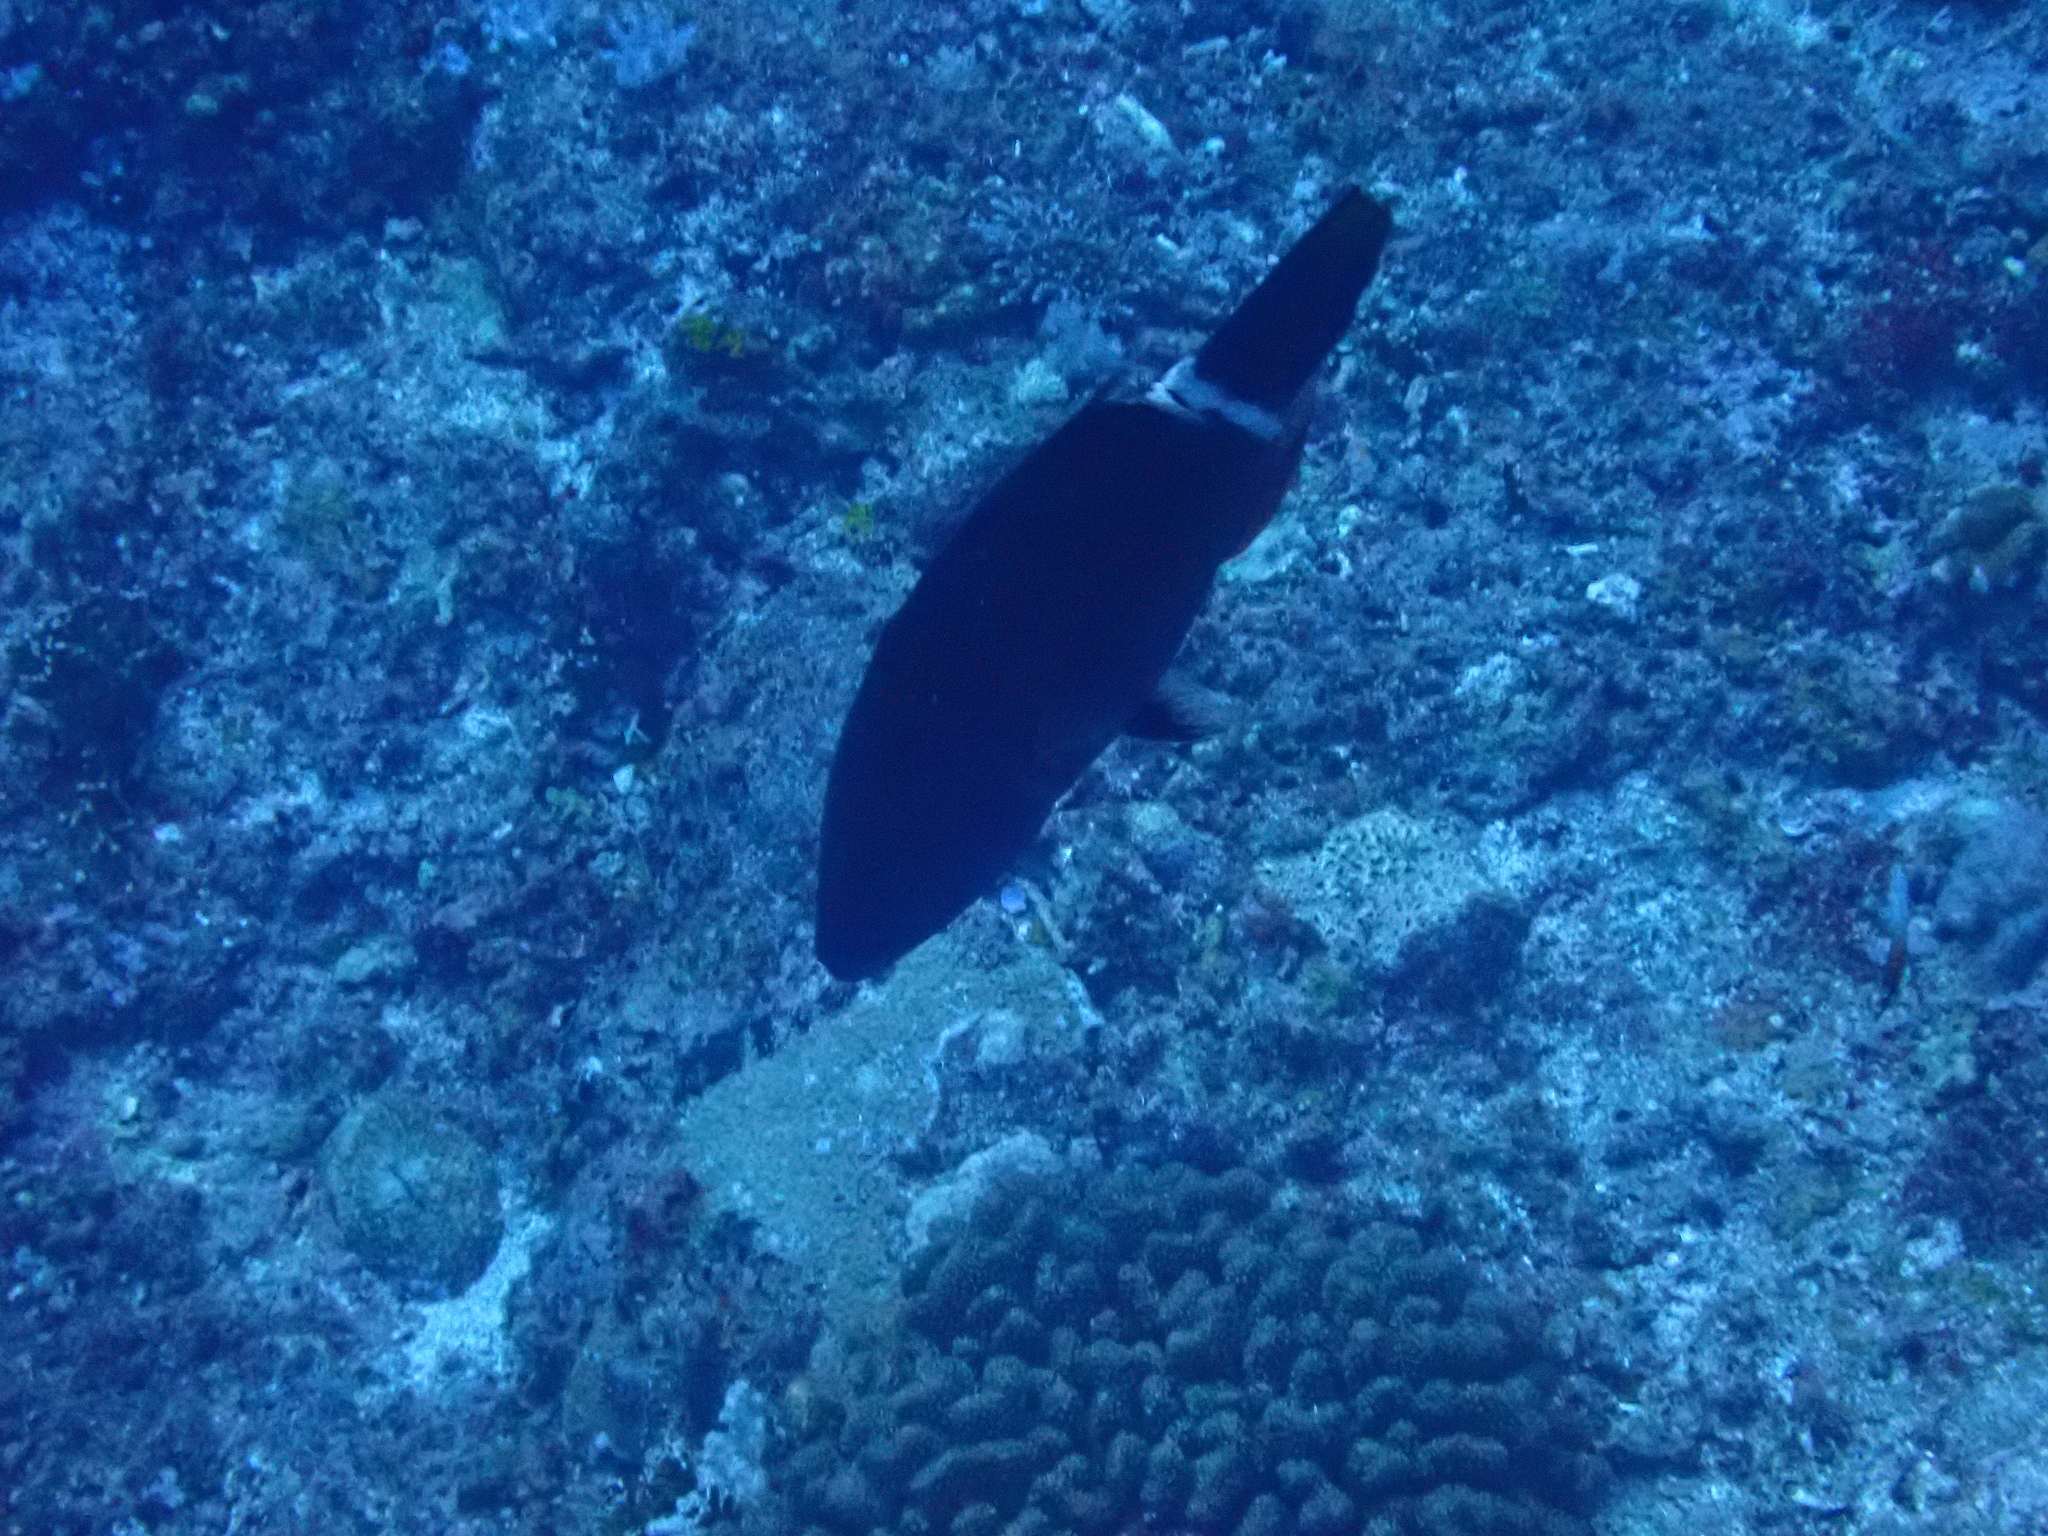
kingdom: Animalia
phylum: Chordata
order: Perciformes
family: Labridae
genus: Oxycheilinus
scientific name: Oxycheilinus unifasciatus
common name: Ringtail maori wrasse
